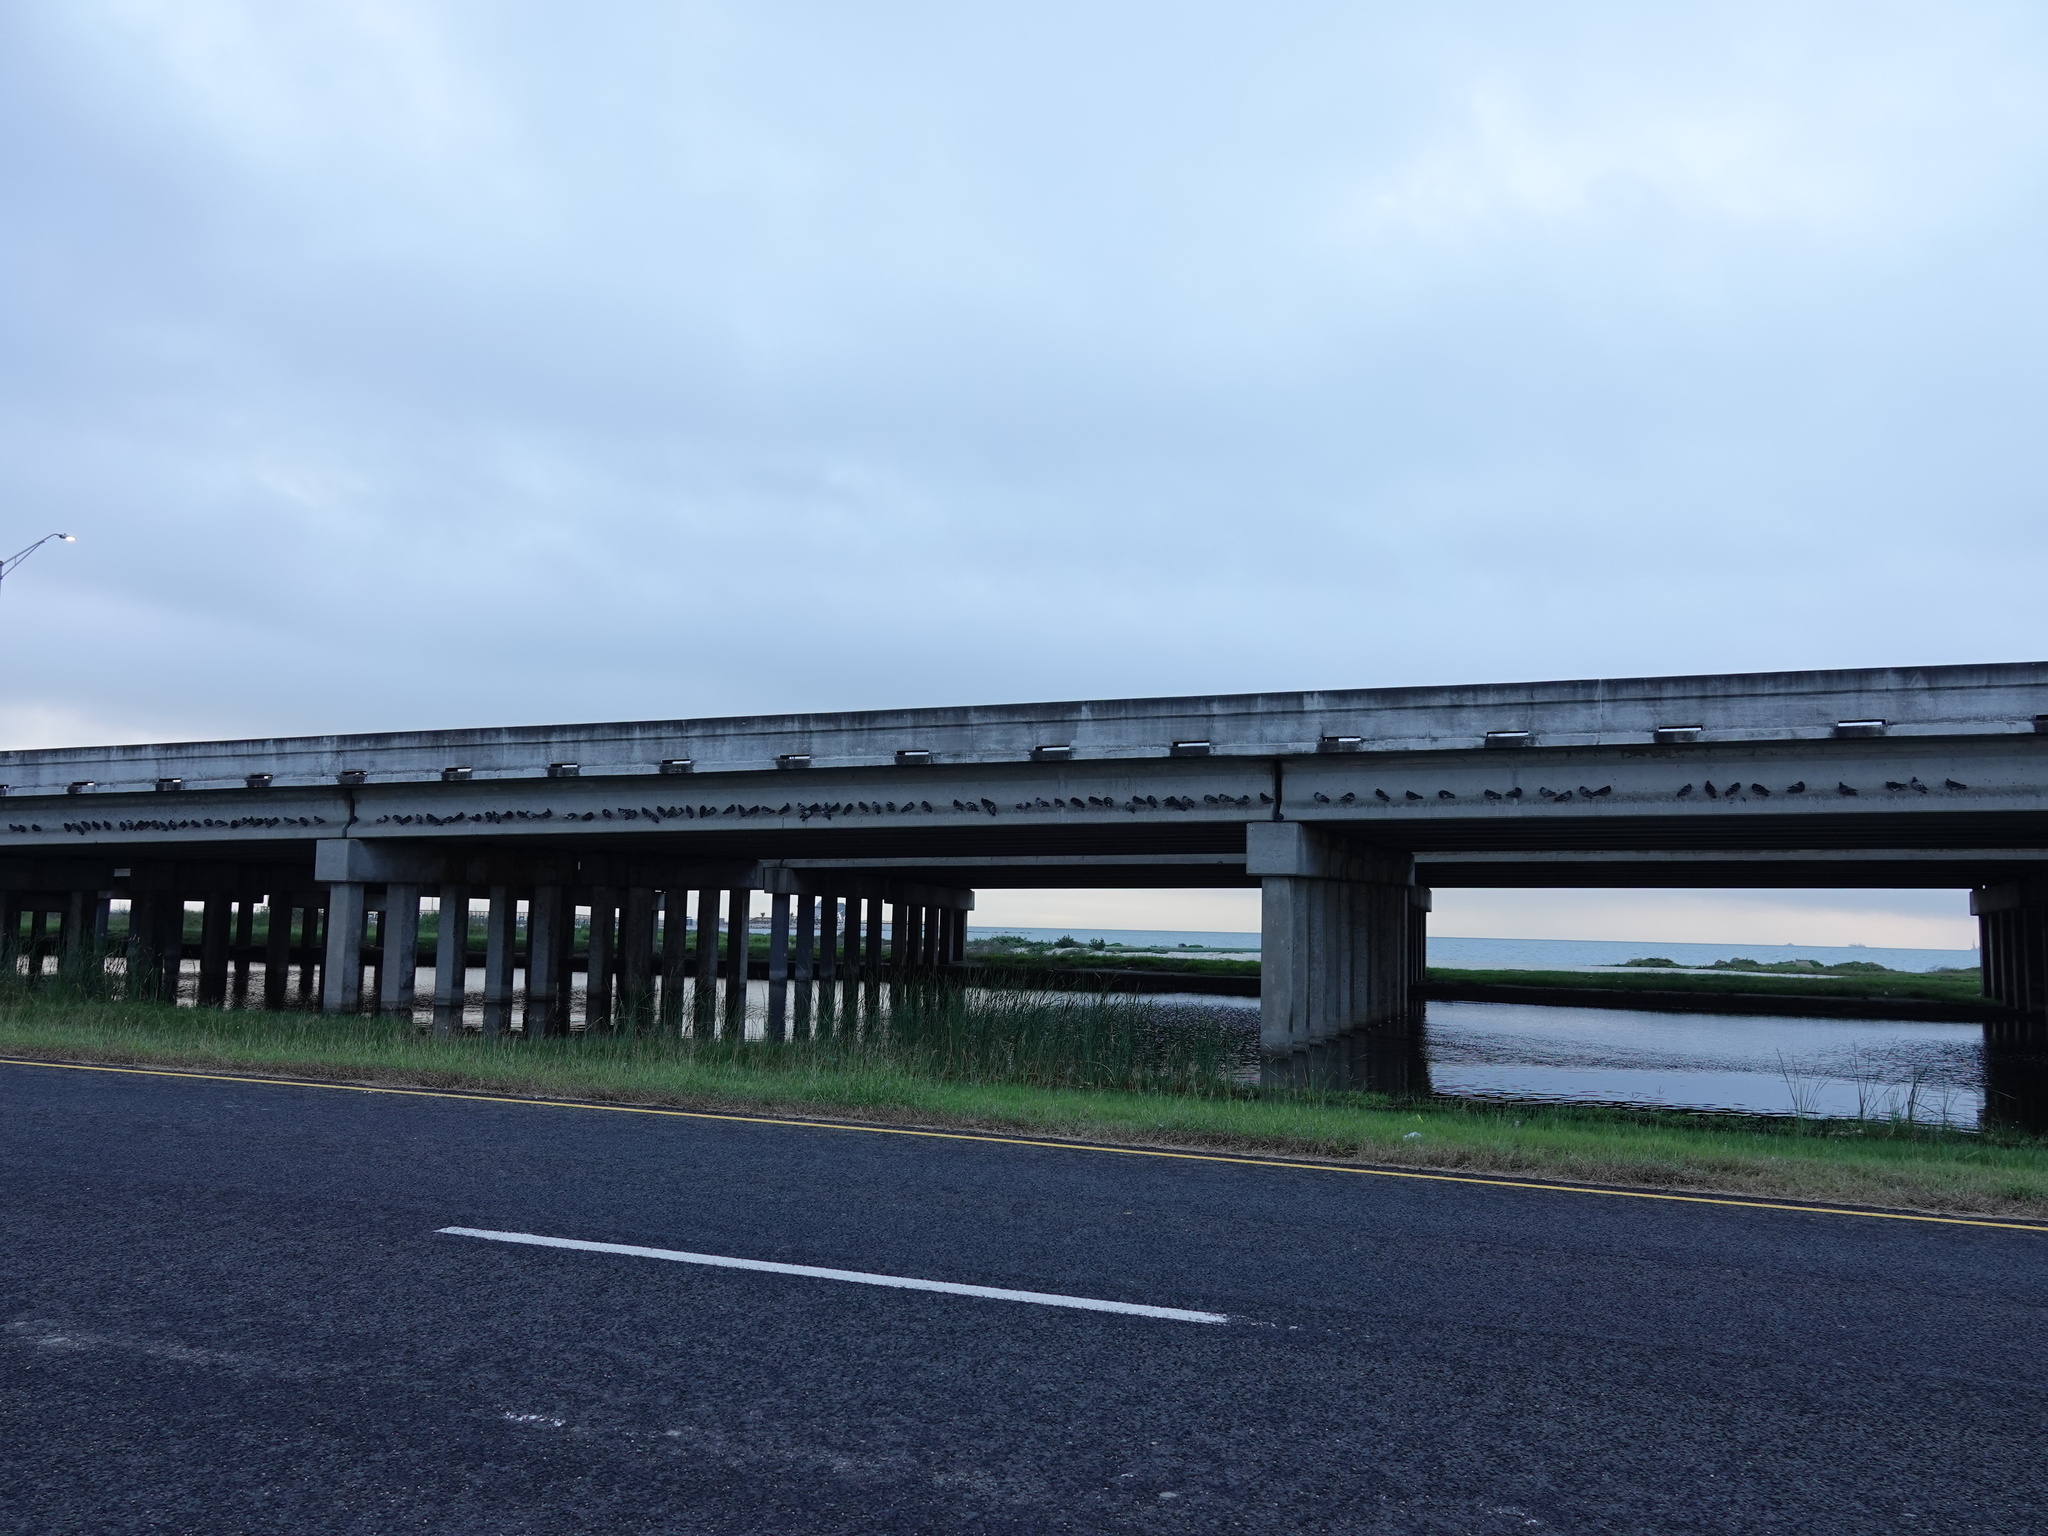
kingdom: Animalia
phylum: Chordata
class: Aves
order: Columbiformes
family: Columbidae
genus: Columba
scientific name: Columba livia
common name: Rock pigeon
